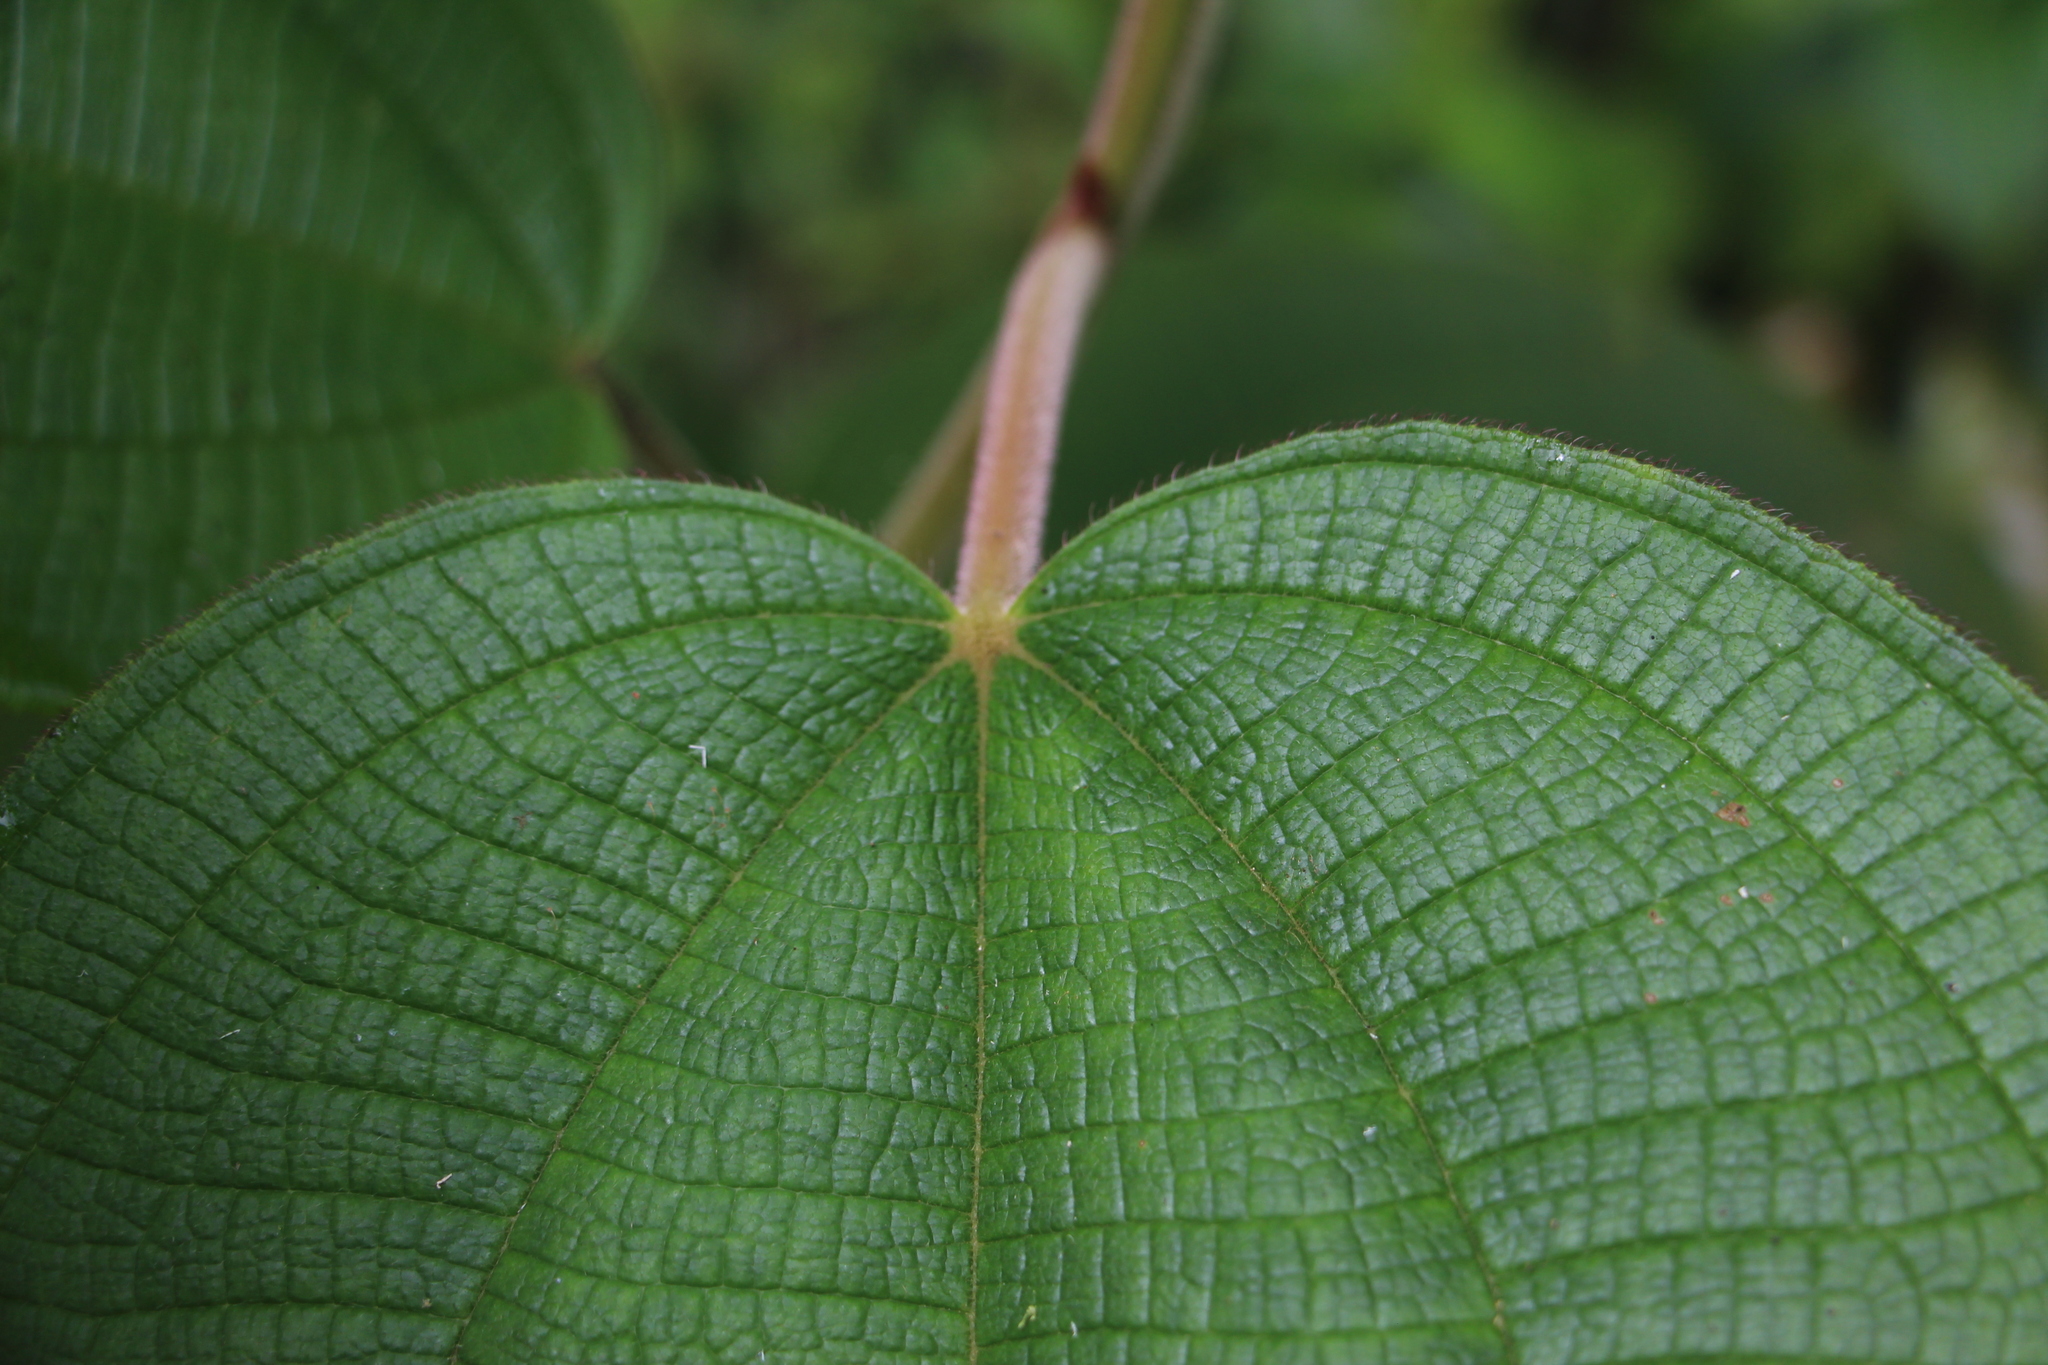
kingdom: Plantae
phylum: Tracheophyta
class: Magnoliopsida
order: Myrtales
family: Melastomataceae
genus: Miconia
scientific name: Miconia aeruginosa
